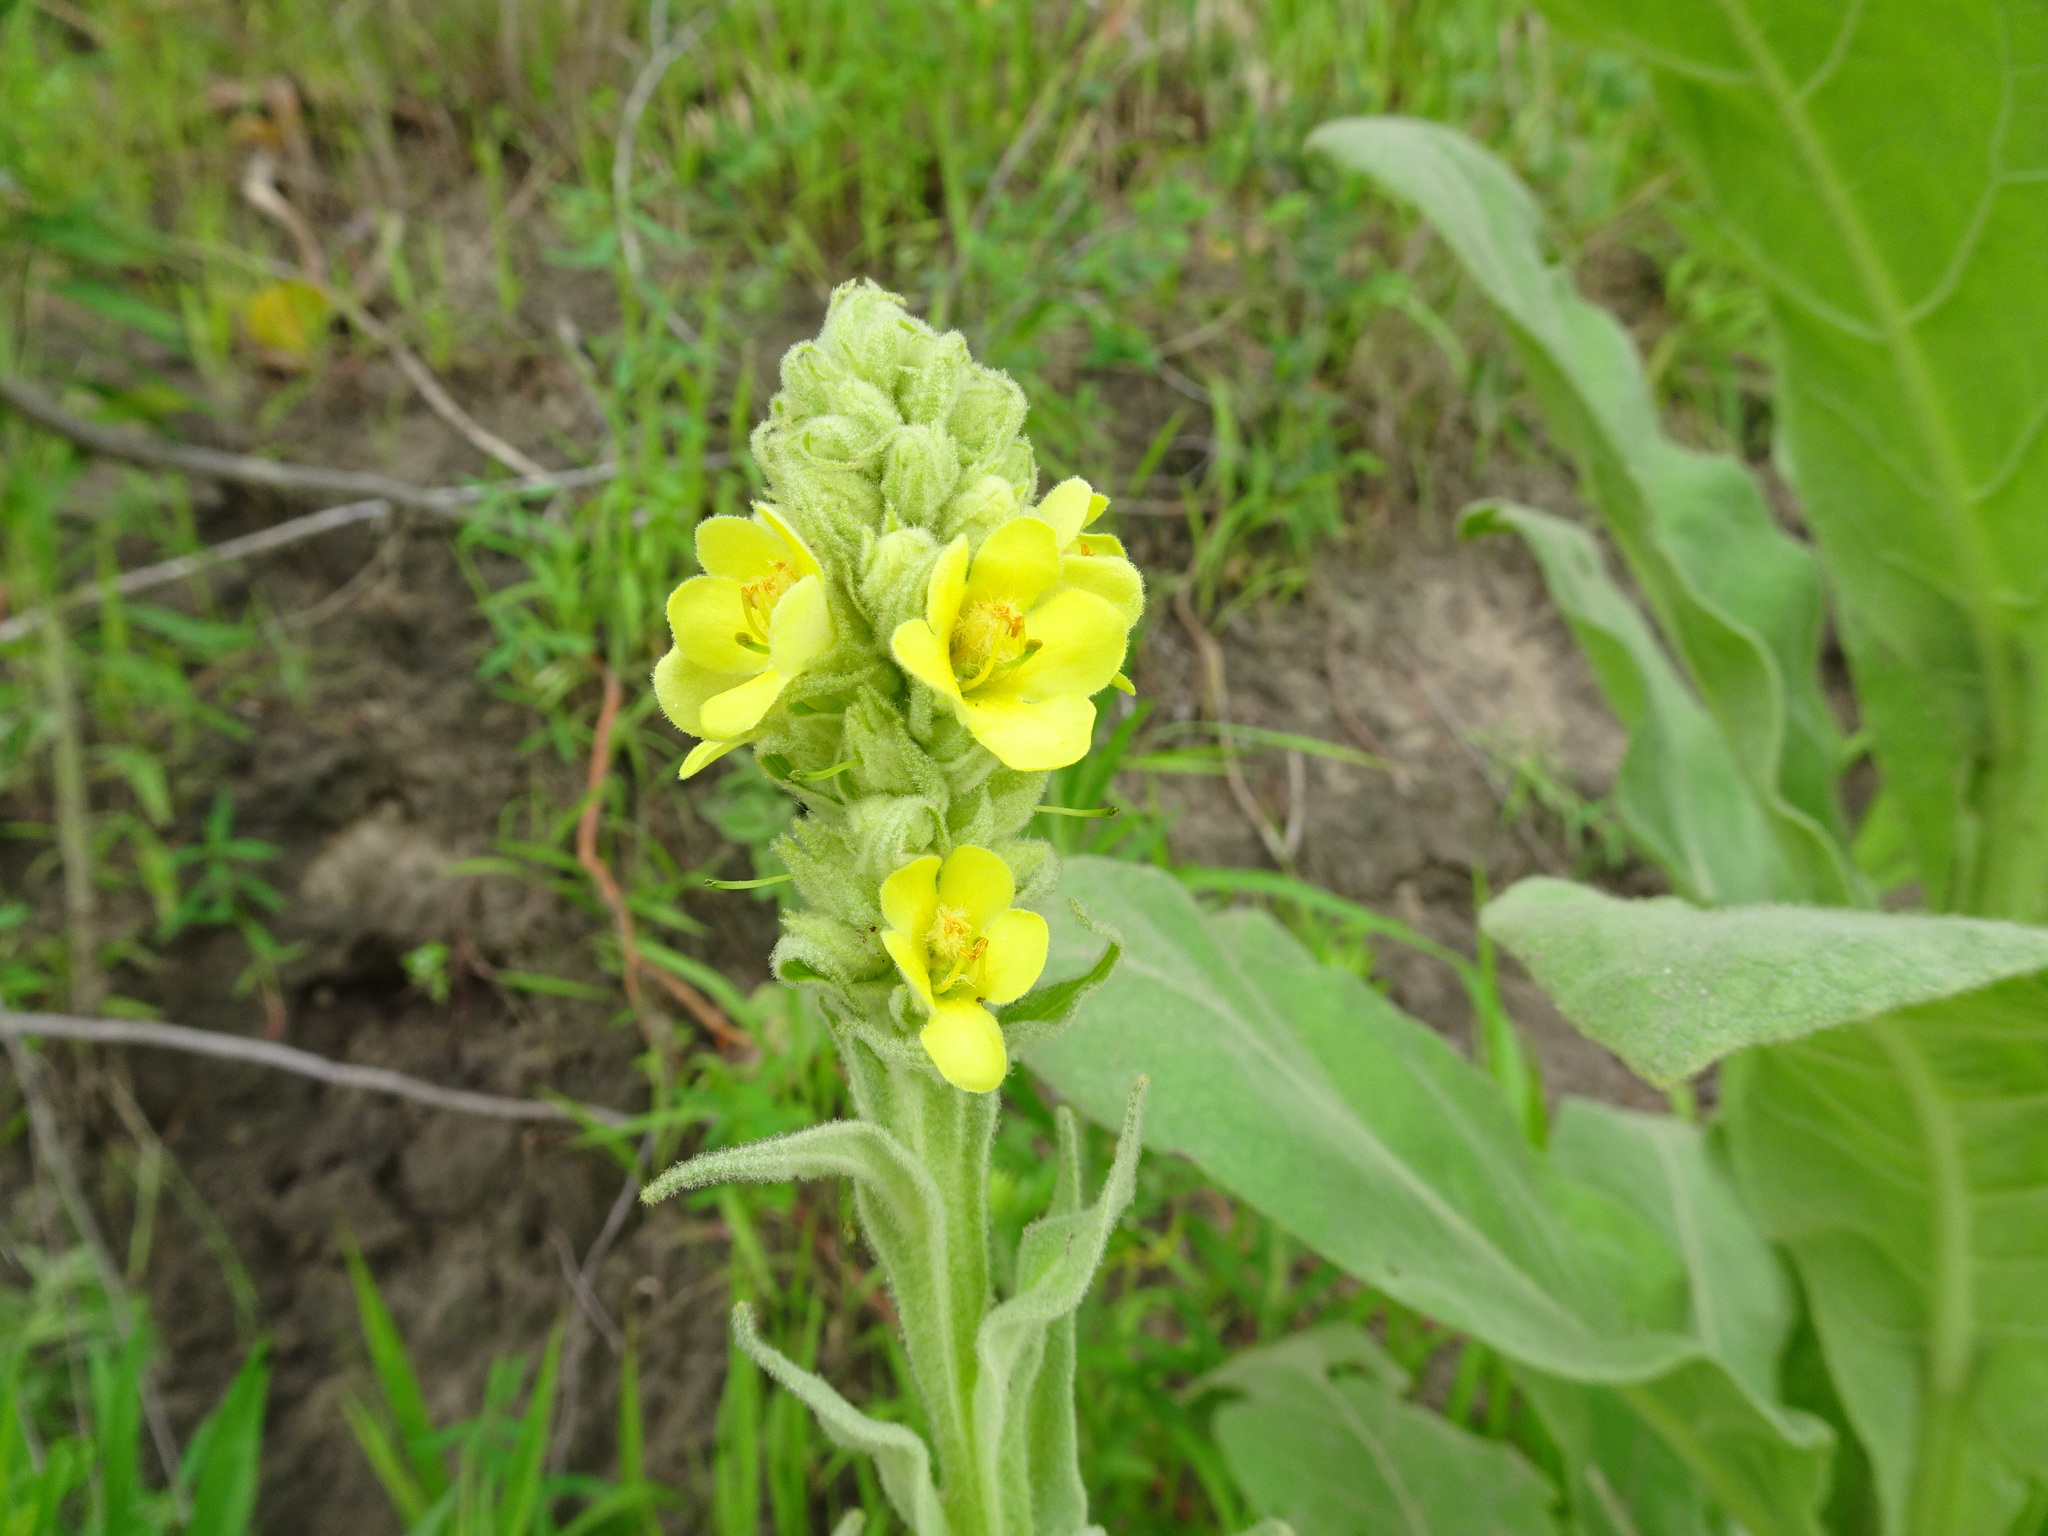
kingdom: Plantae
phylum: Tracheophyta
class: Magnoliopsida
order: Lamiales
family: Scrophulariaceae
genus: Verbascum
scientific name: Verbascum thapsus
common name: Common mullein
